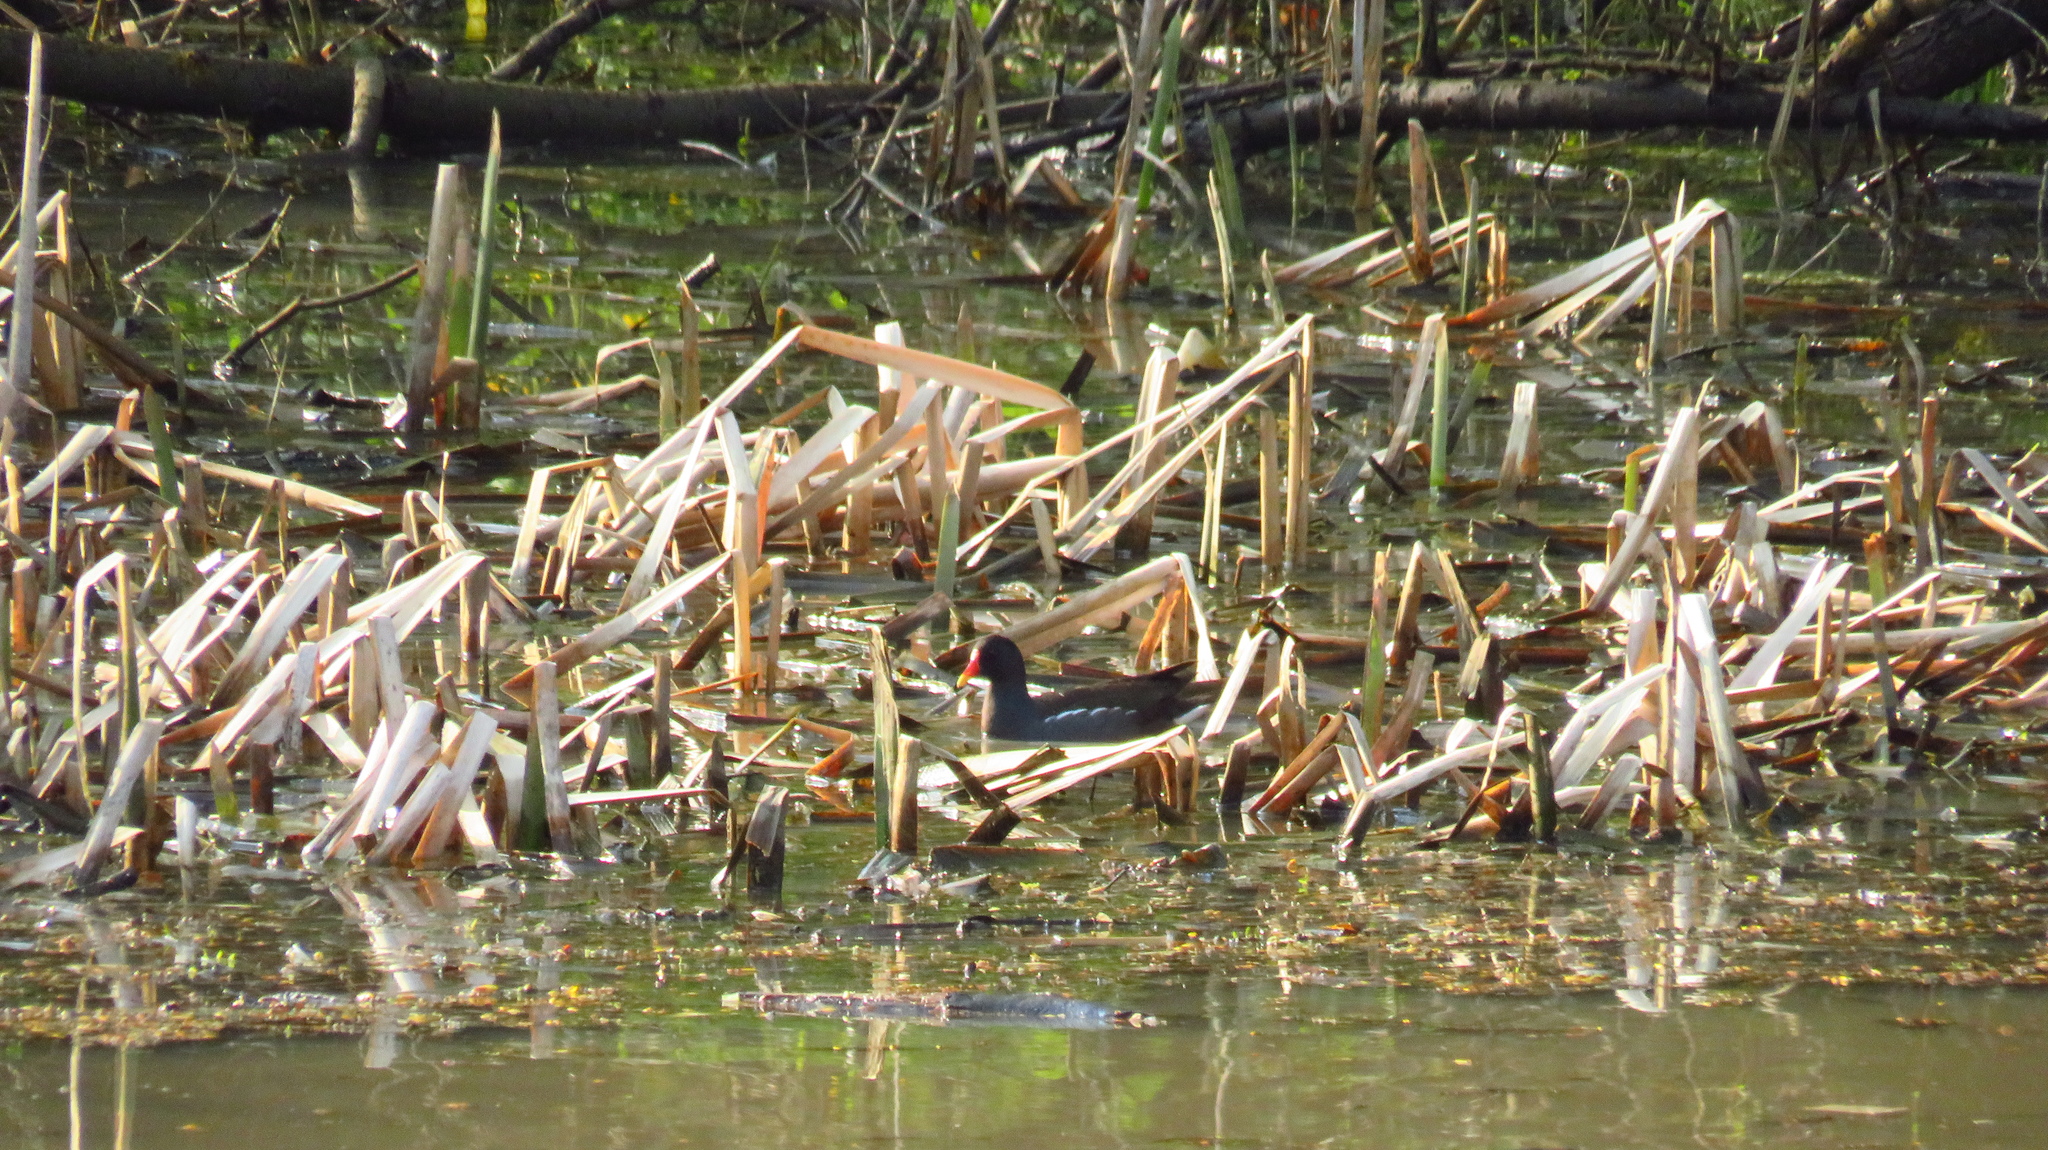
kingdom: Animalia
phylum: Chordata
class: Aves
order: Gruiformes
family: Rallidae
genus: Gallinula
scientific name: Gallinula chloropus
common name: Common moorhen
